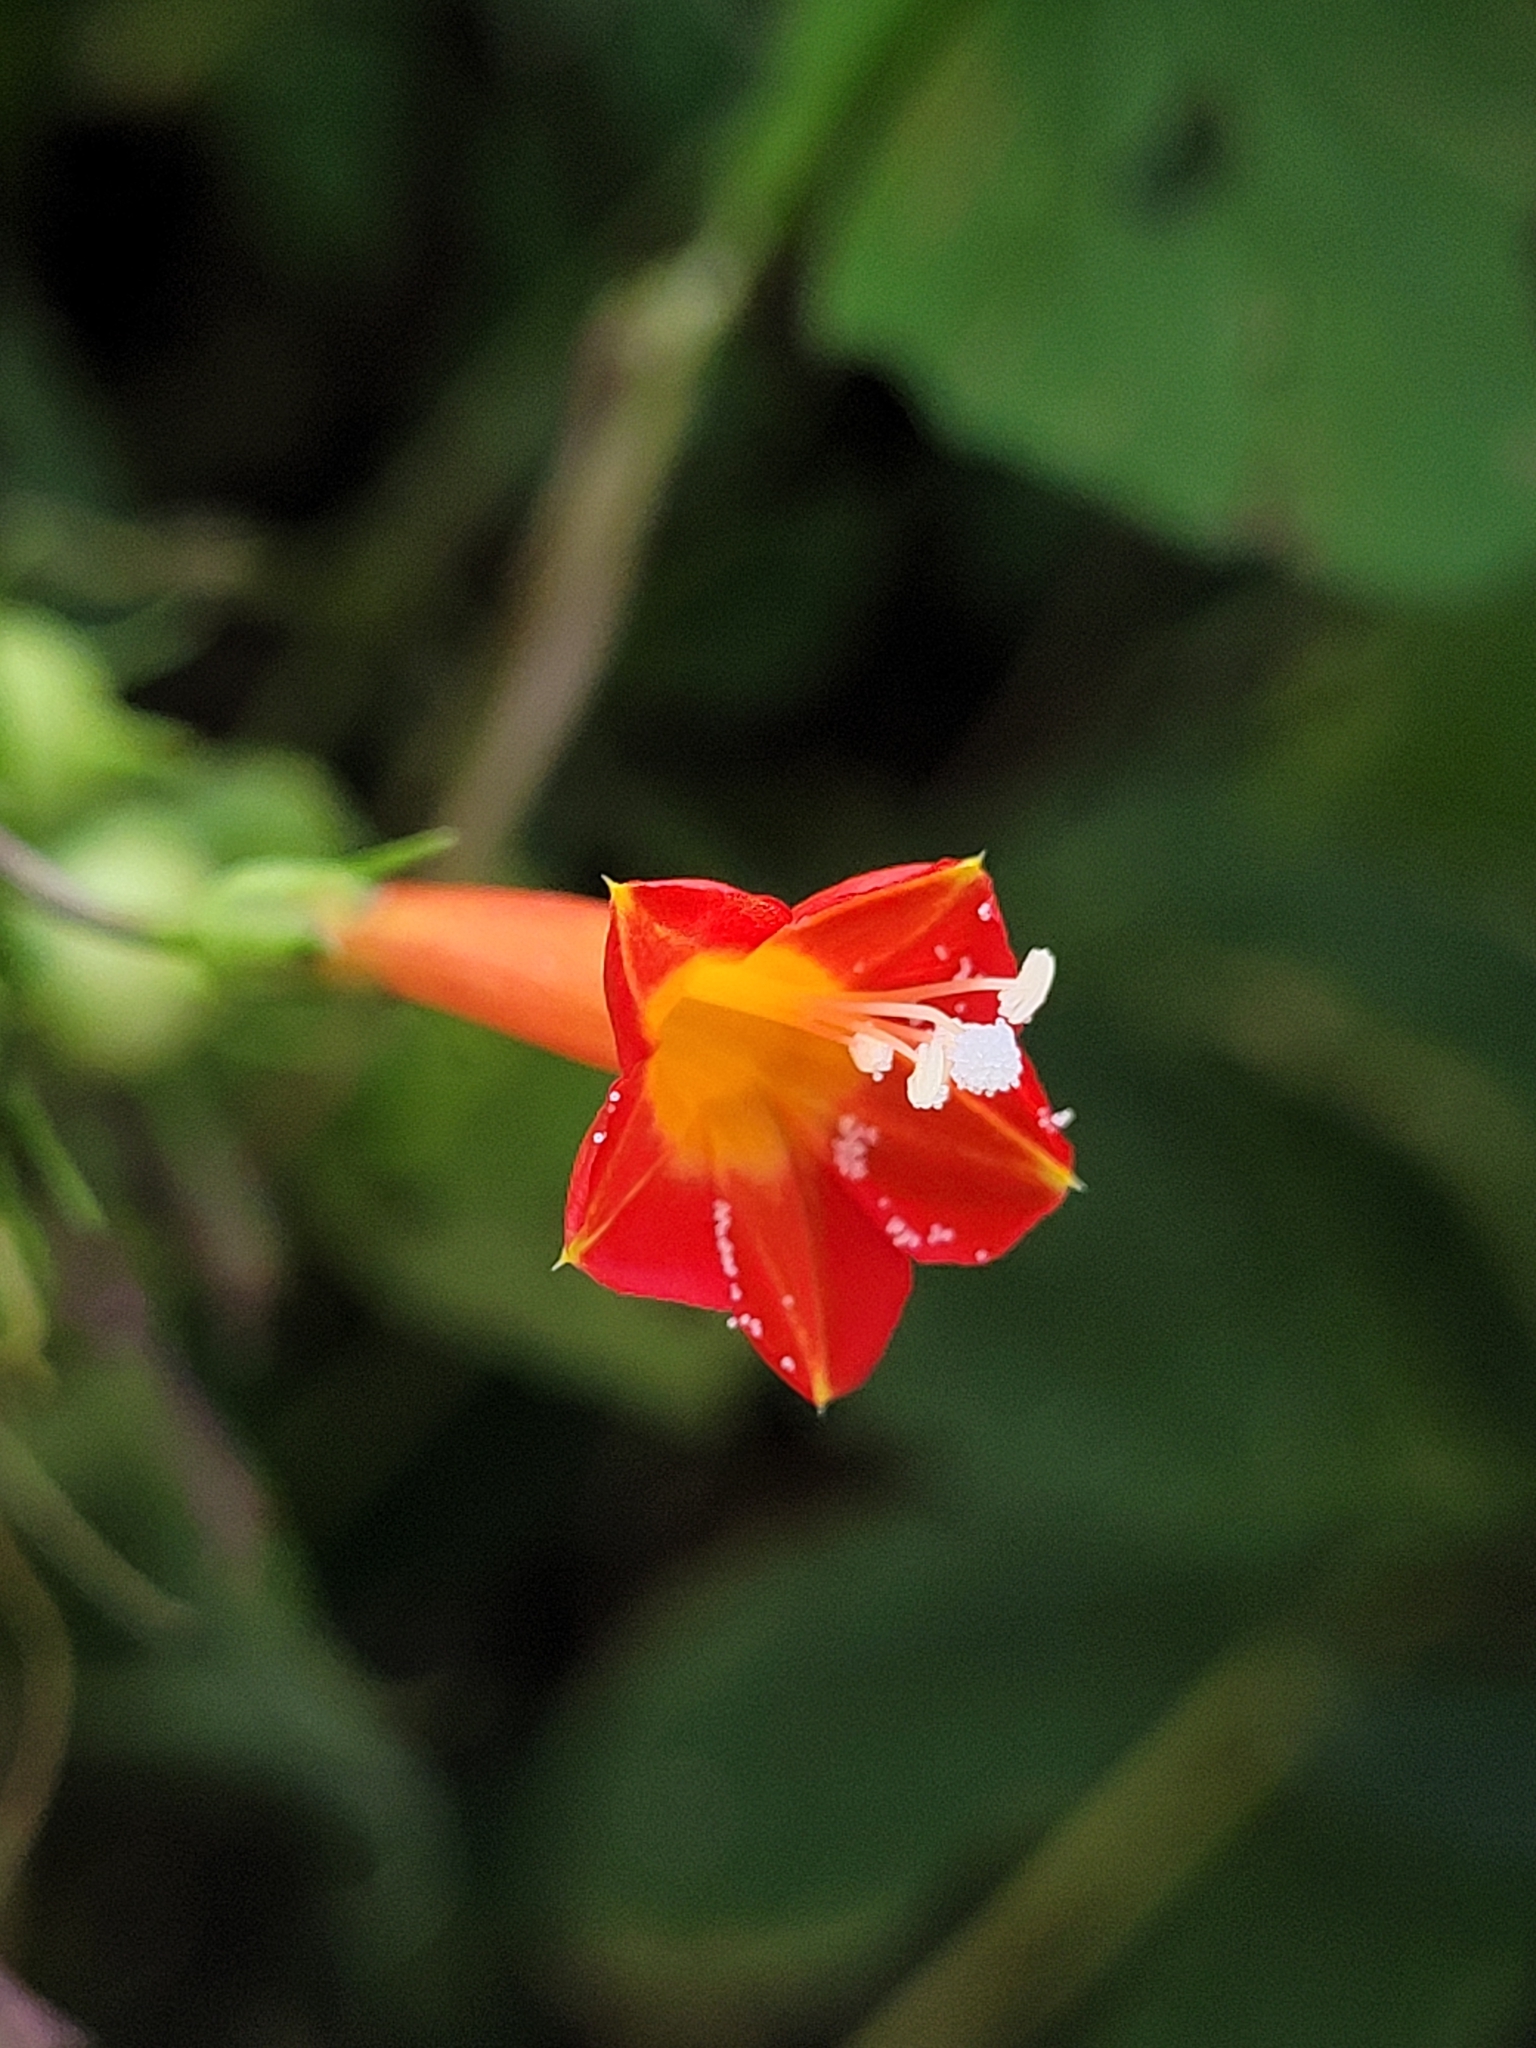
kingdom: Plantae
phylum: Tracheophyta
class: Magnoliopsida
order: Solanales
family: Convolvulaceae
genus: Ipomoea
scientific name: Ipomoea coccinea
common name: Red morning-glory
